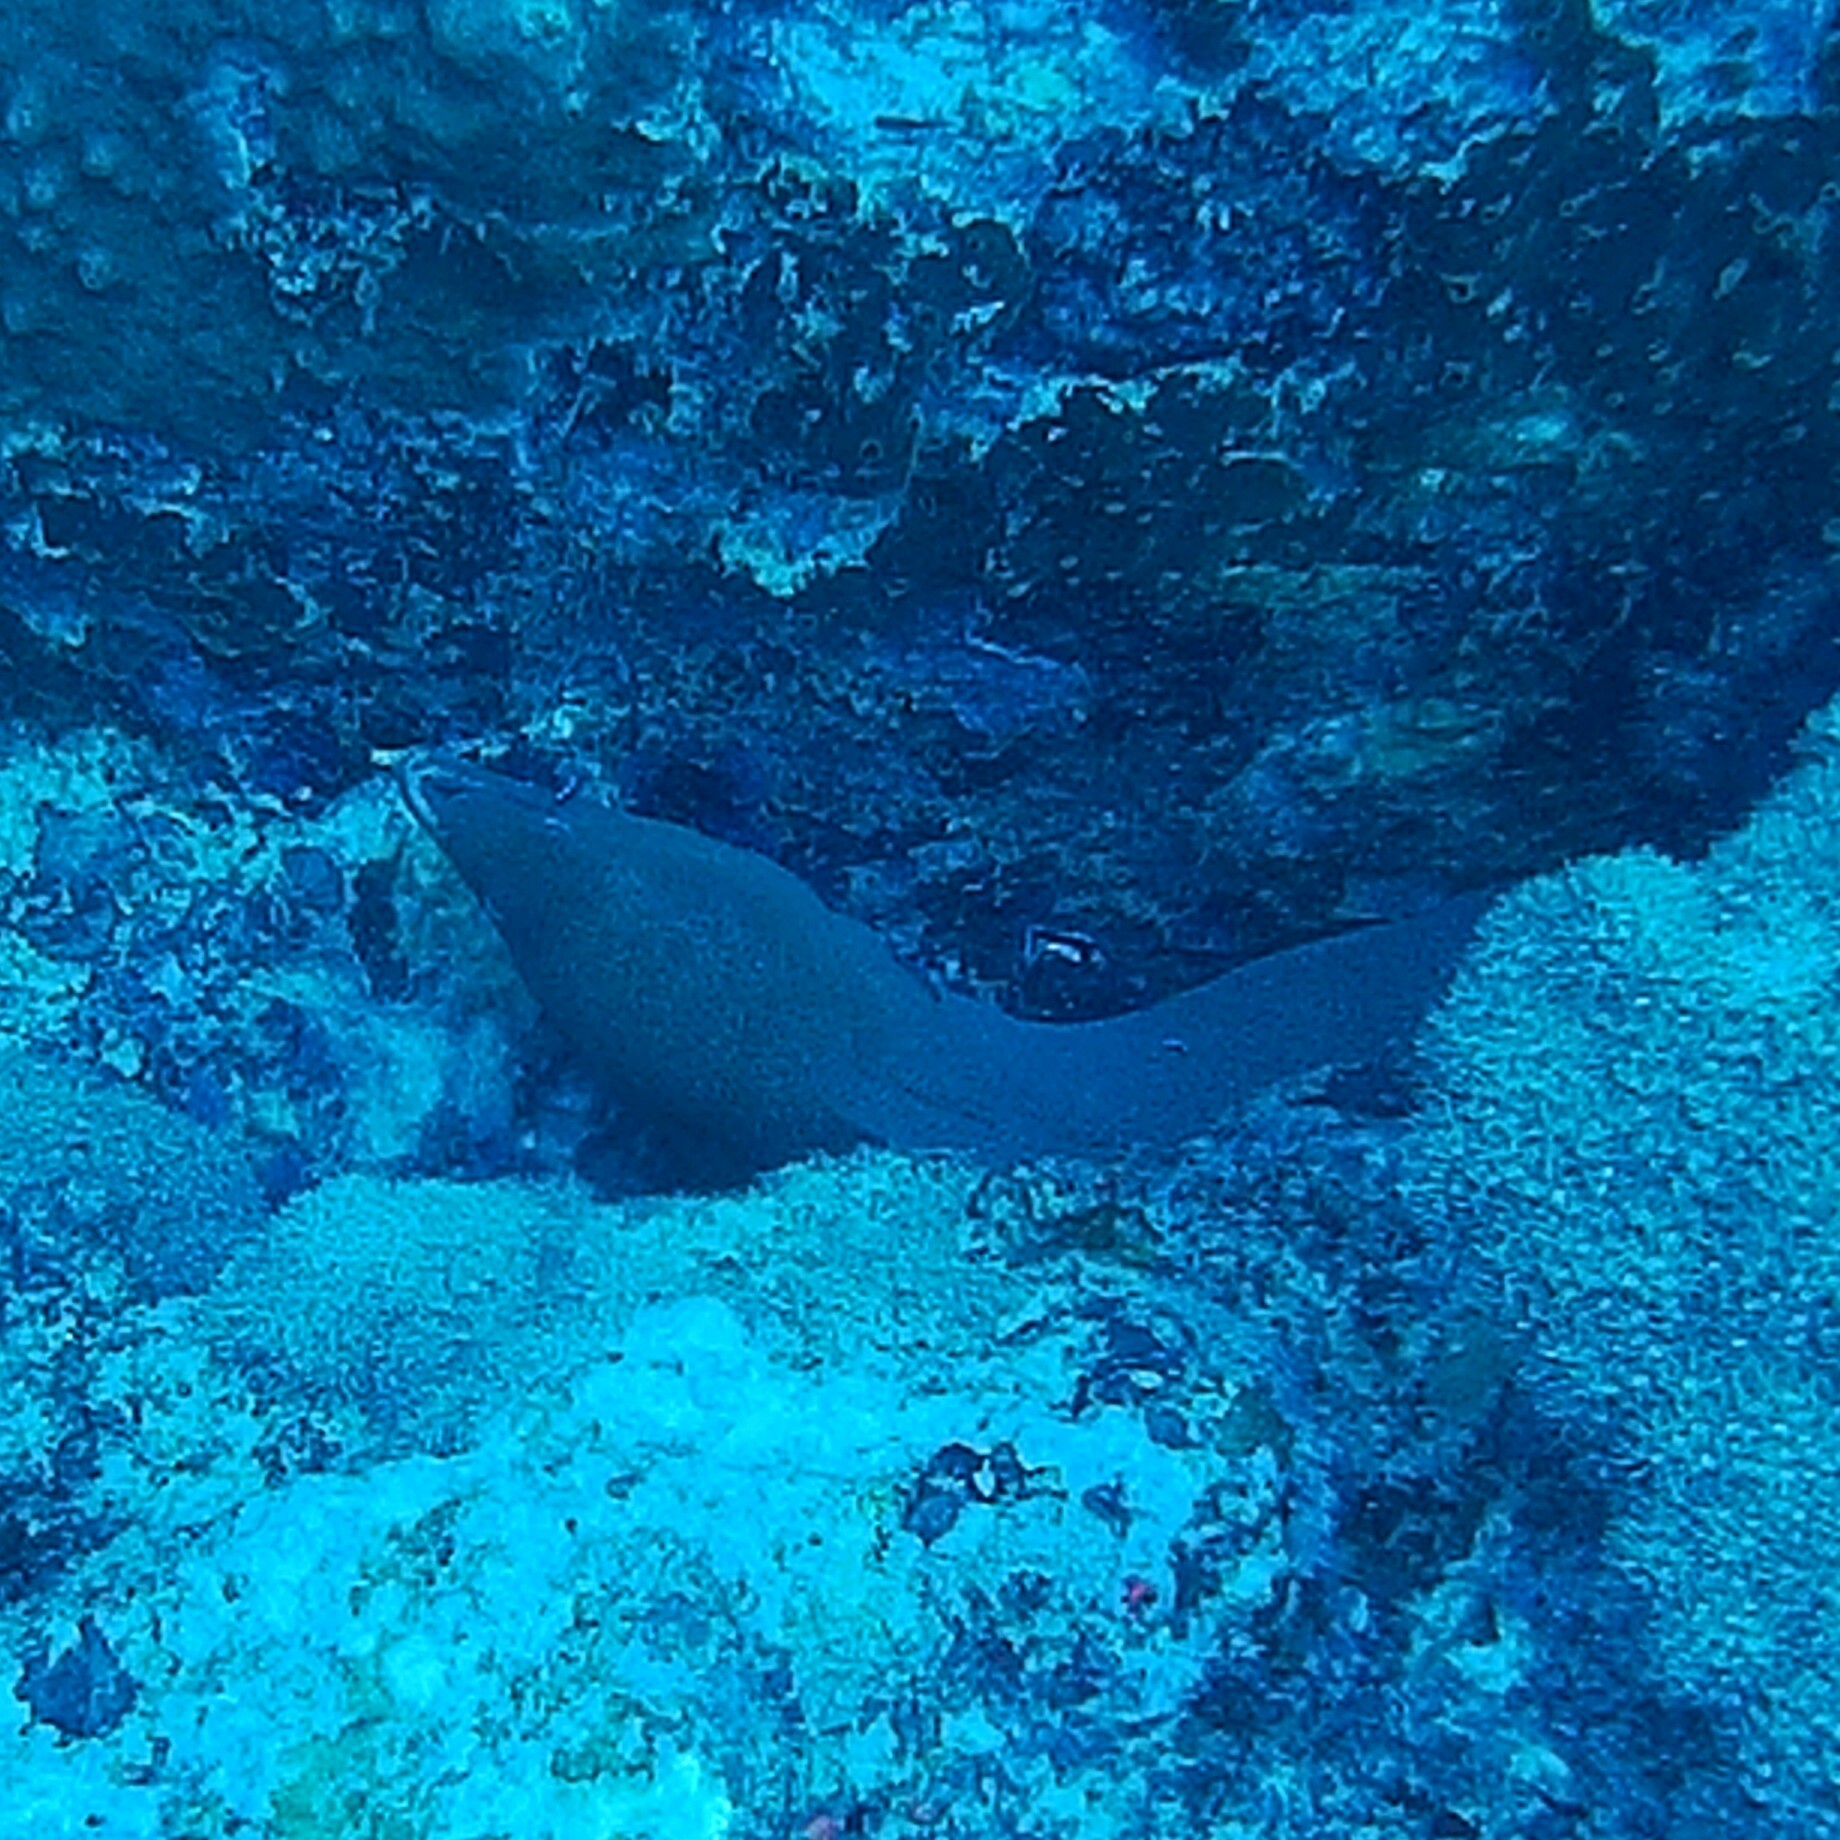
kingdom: Animalia
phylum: Chordata
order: Anguilliformes
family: Muraenidae
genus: Gymnothorax
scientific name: Gymnothorax javanicus
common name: Giant moray
